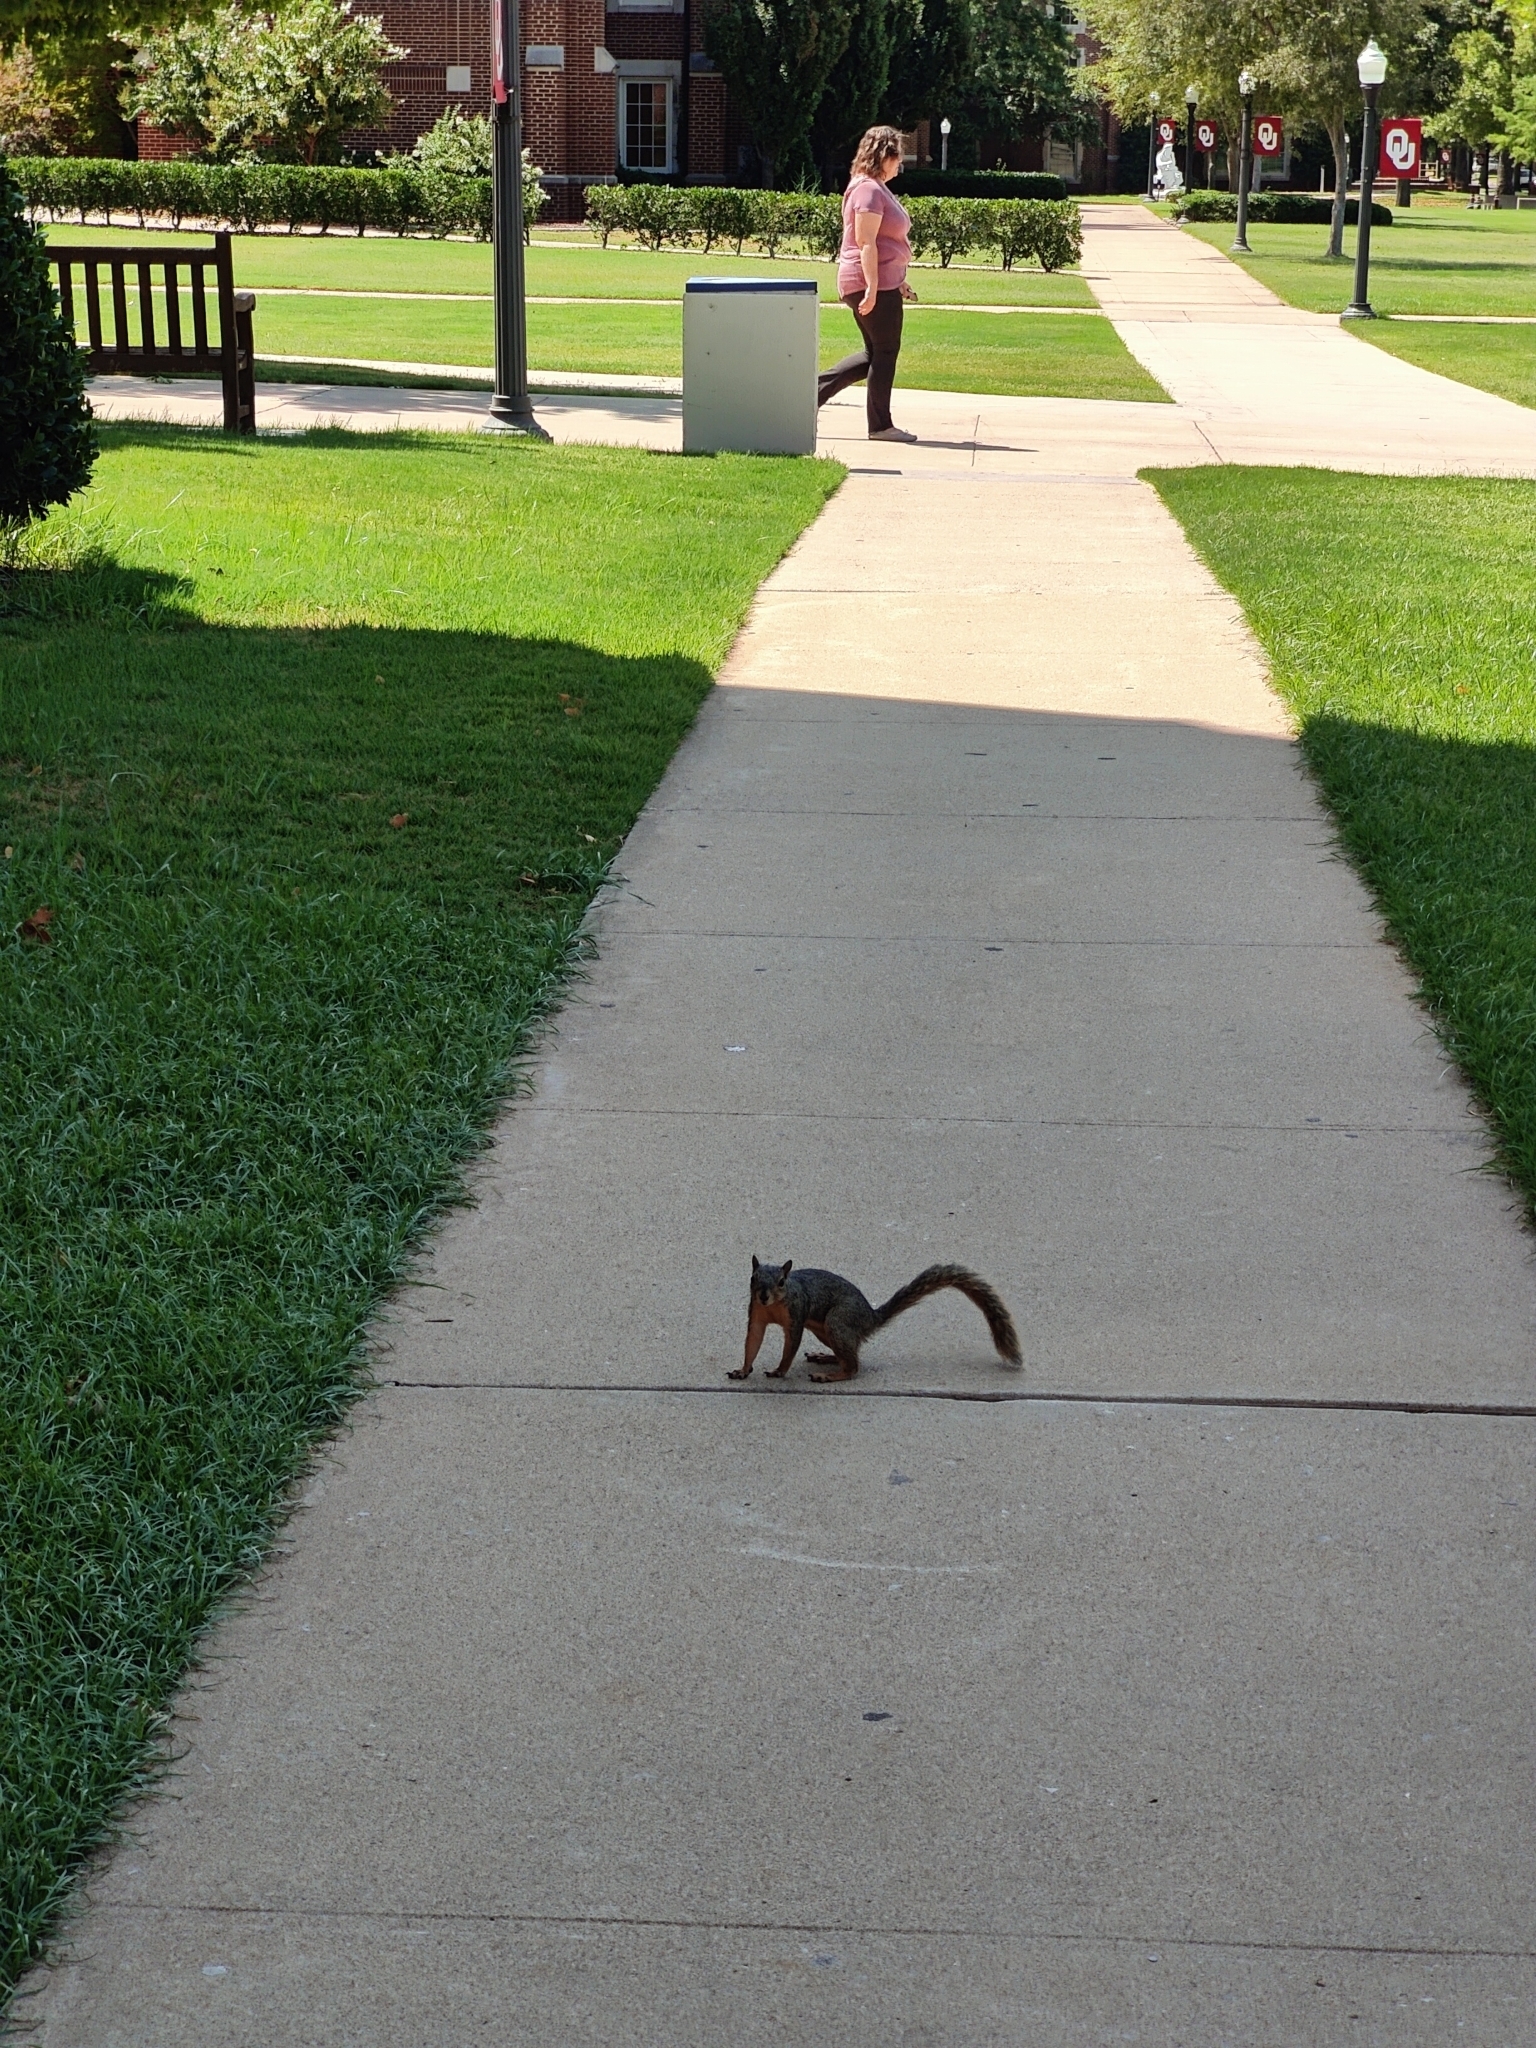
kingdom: Animalia
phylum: Chordata
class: Mammalia
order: Rodentia
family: Sciuridae
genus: Sciurus
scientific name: Sciurus niger
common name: Fox squirrel
